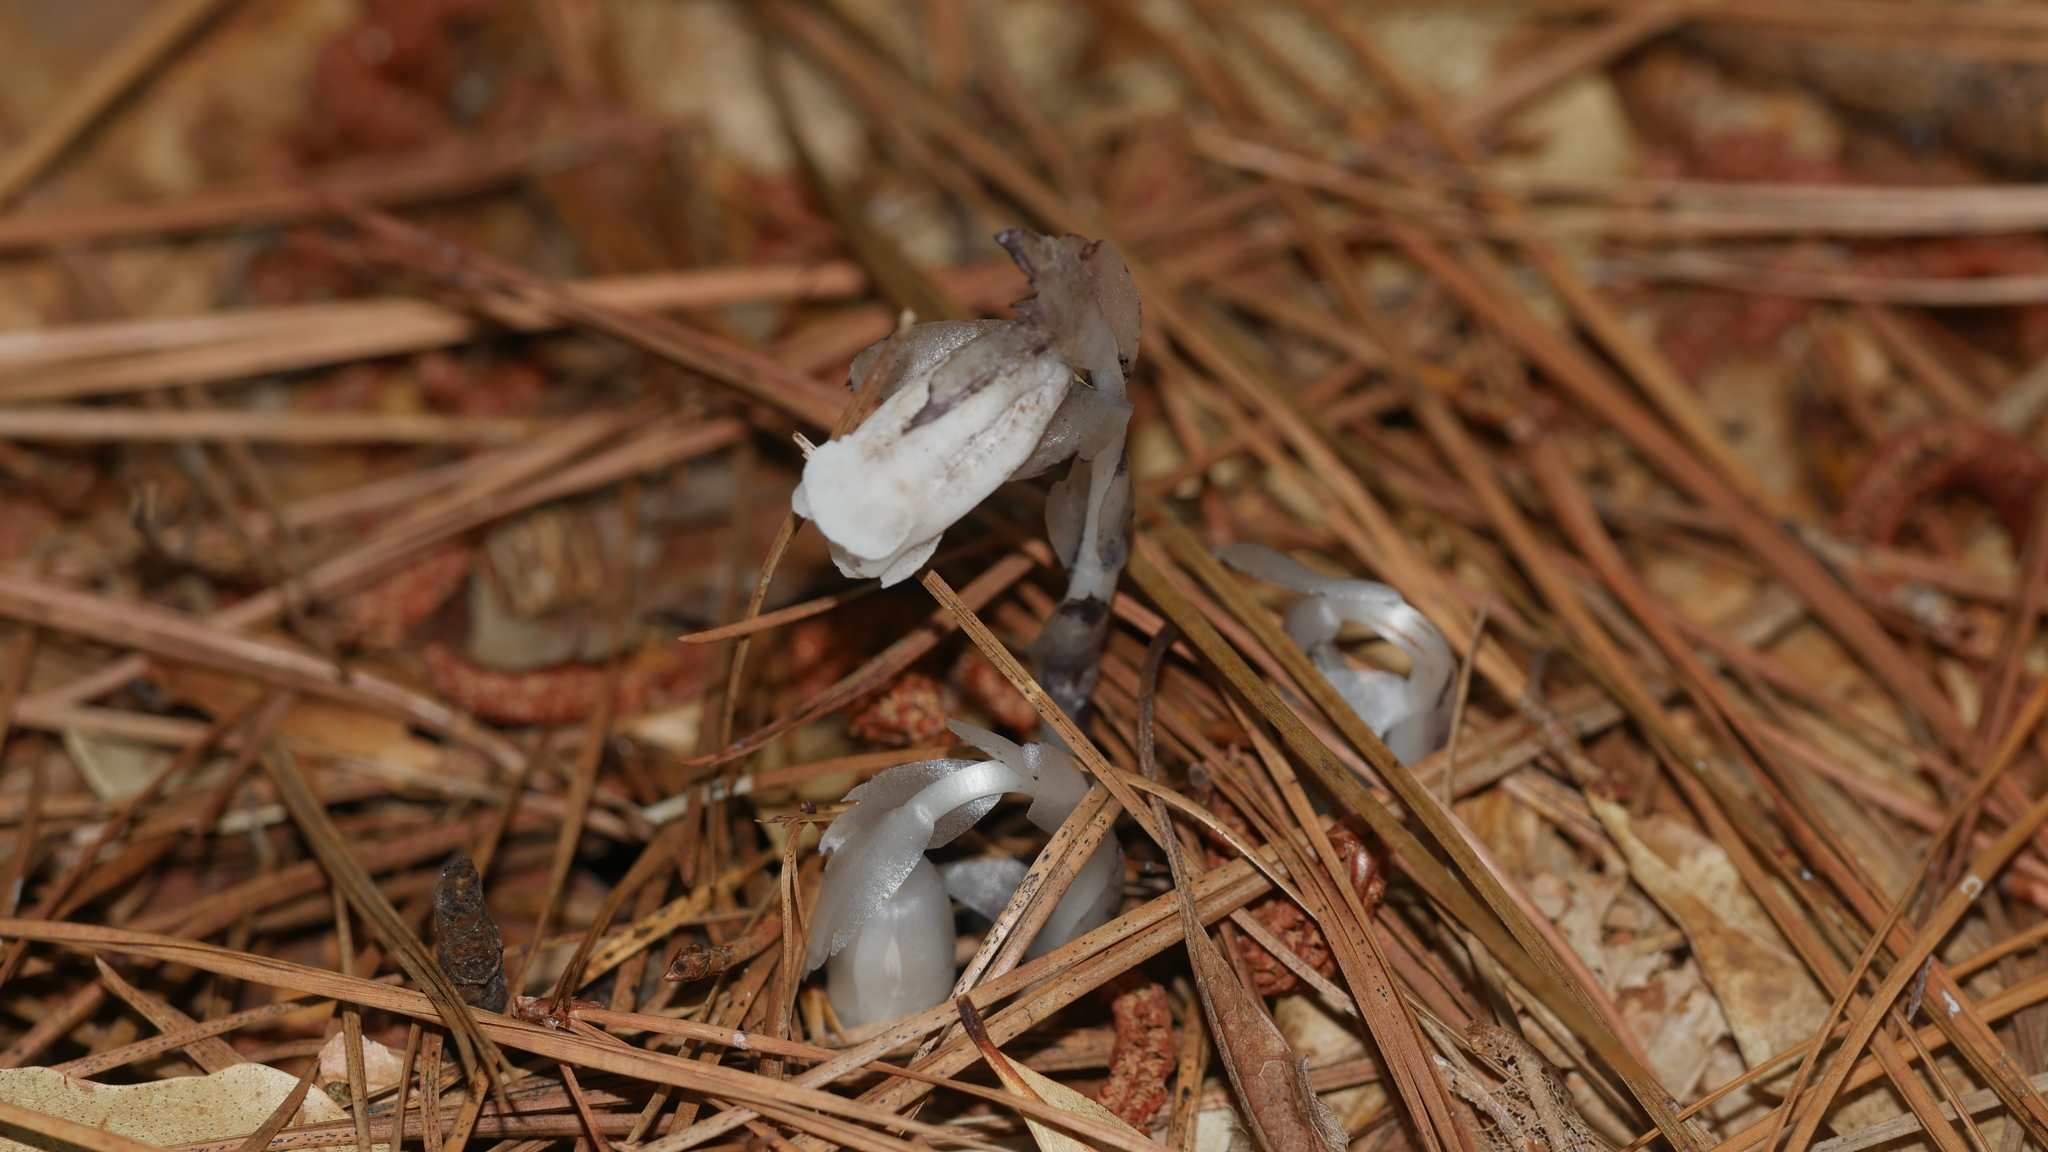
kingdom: Plantae
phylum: Tracheophyta
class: Magnoliopsida
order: Ericales
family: Ericaceae
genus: Monotropa
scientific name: Monotropa uniflora
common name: Convulsion root
